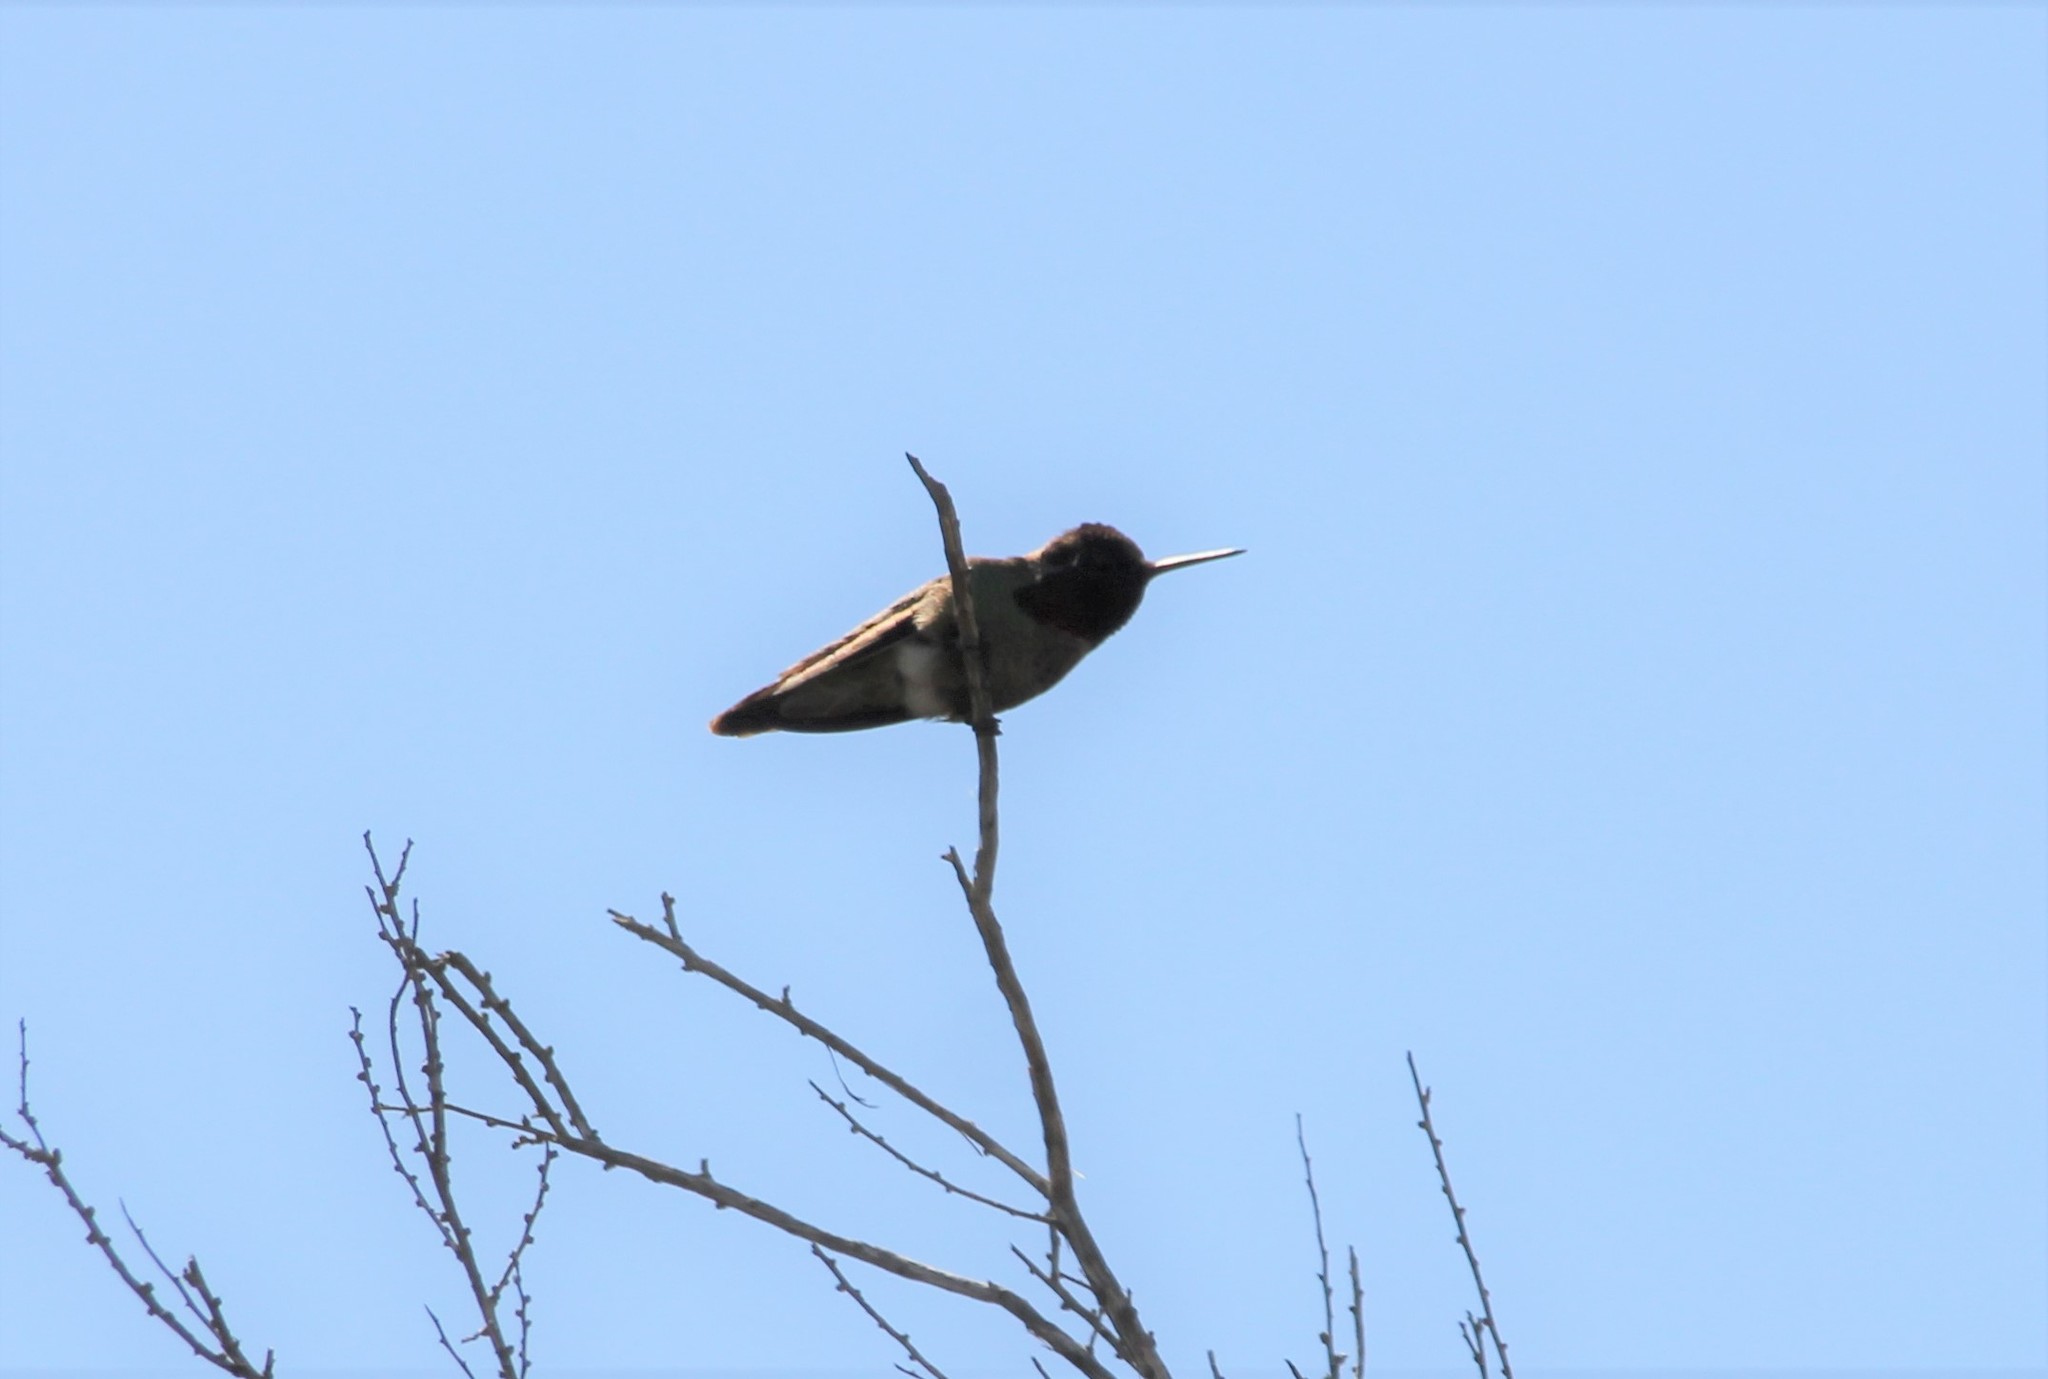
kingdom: Animalia
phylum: Chordata
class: Aves
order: Apodiformes
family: Trochilidae
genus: Calypte
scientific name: Calypte anna
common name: Anna's hummingbird
